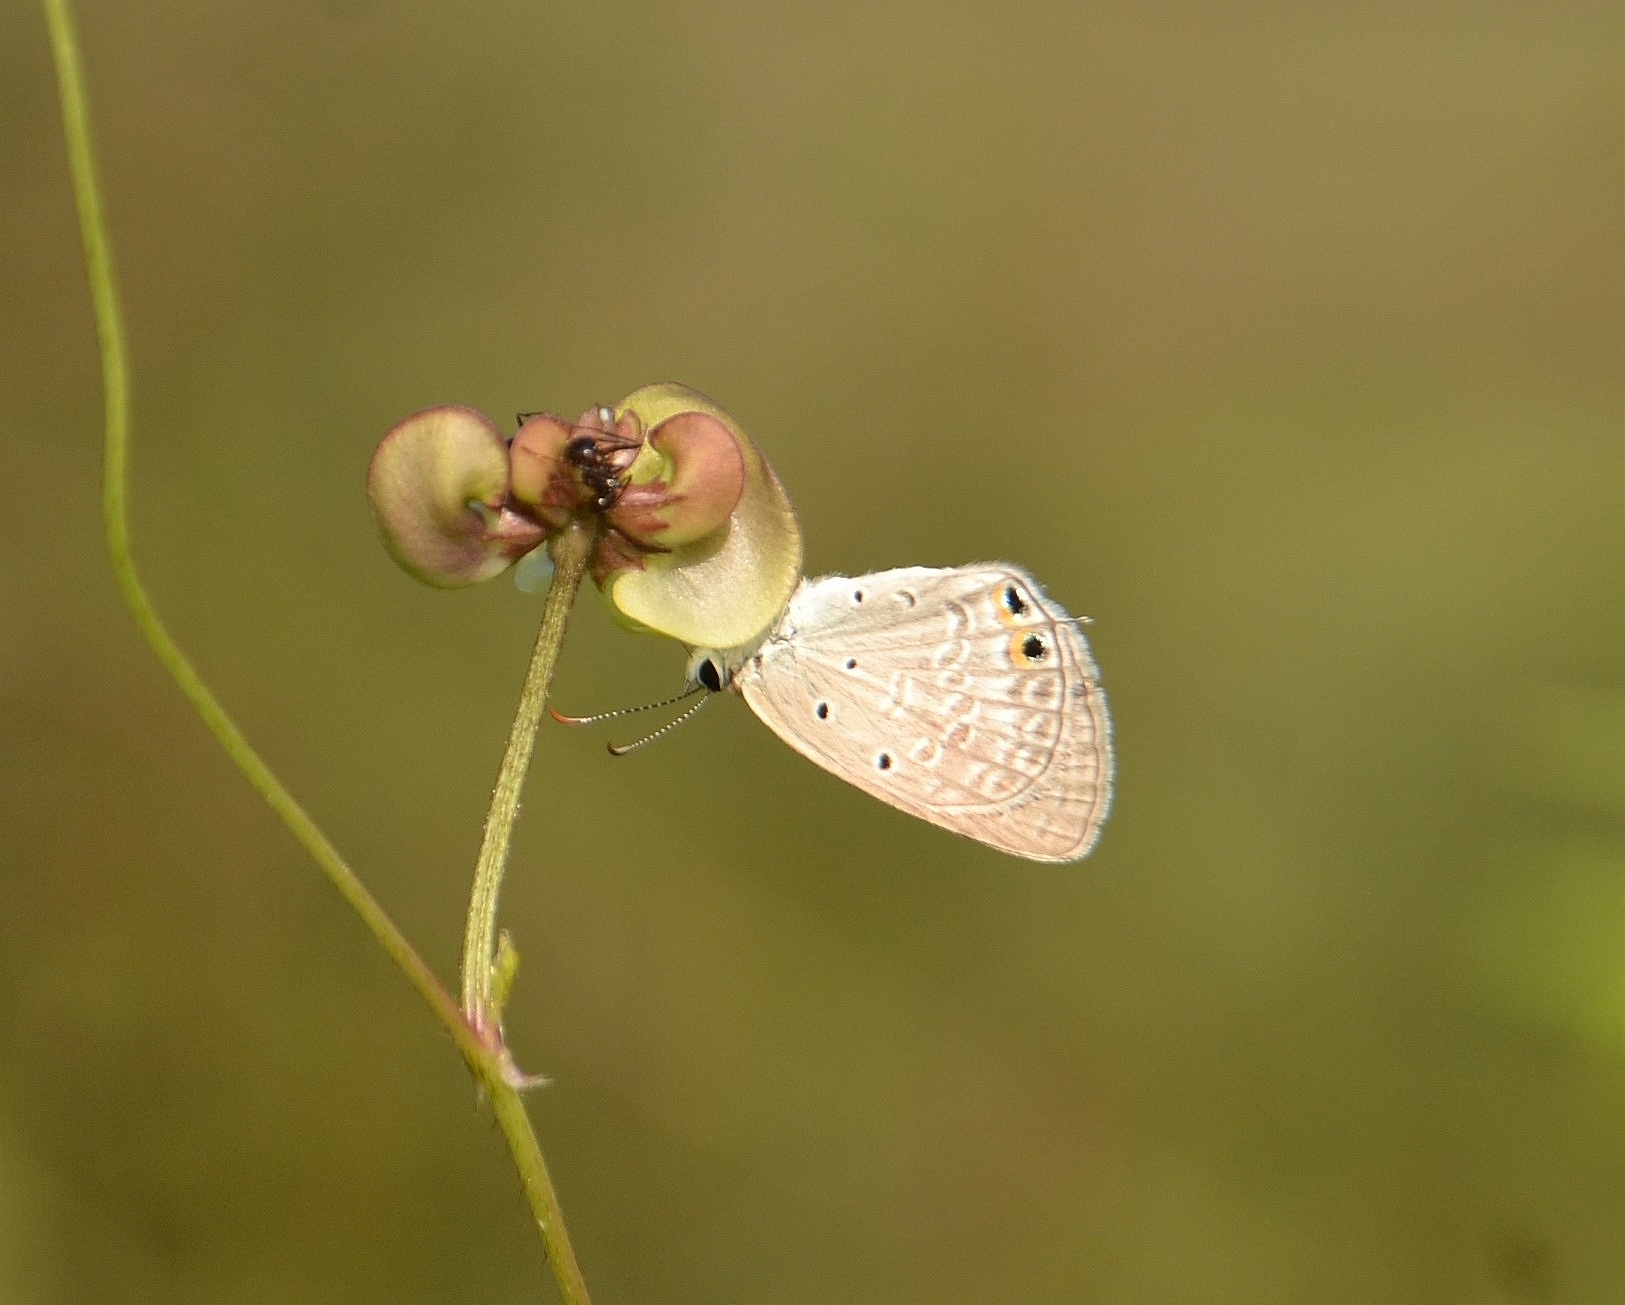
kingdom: Animalia
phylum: Arthropoda
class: Insecta
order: Lepidoptera
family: Lycaenidae
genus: Euchrysops
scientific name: Euchrysops cnejus
